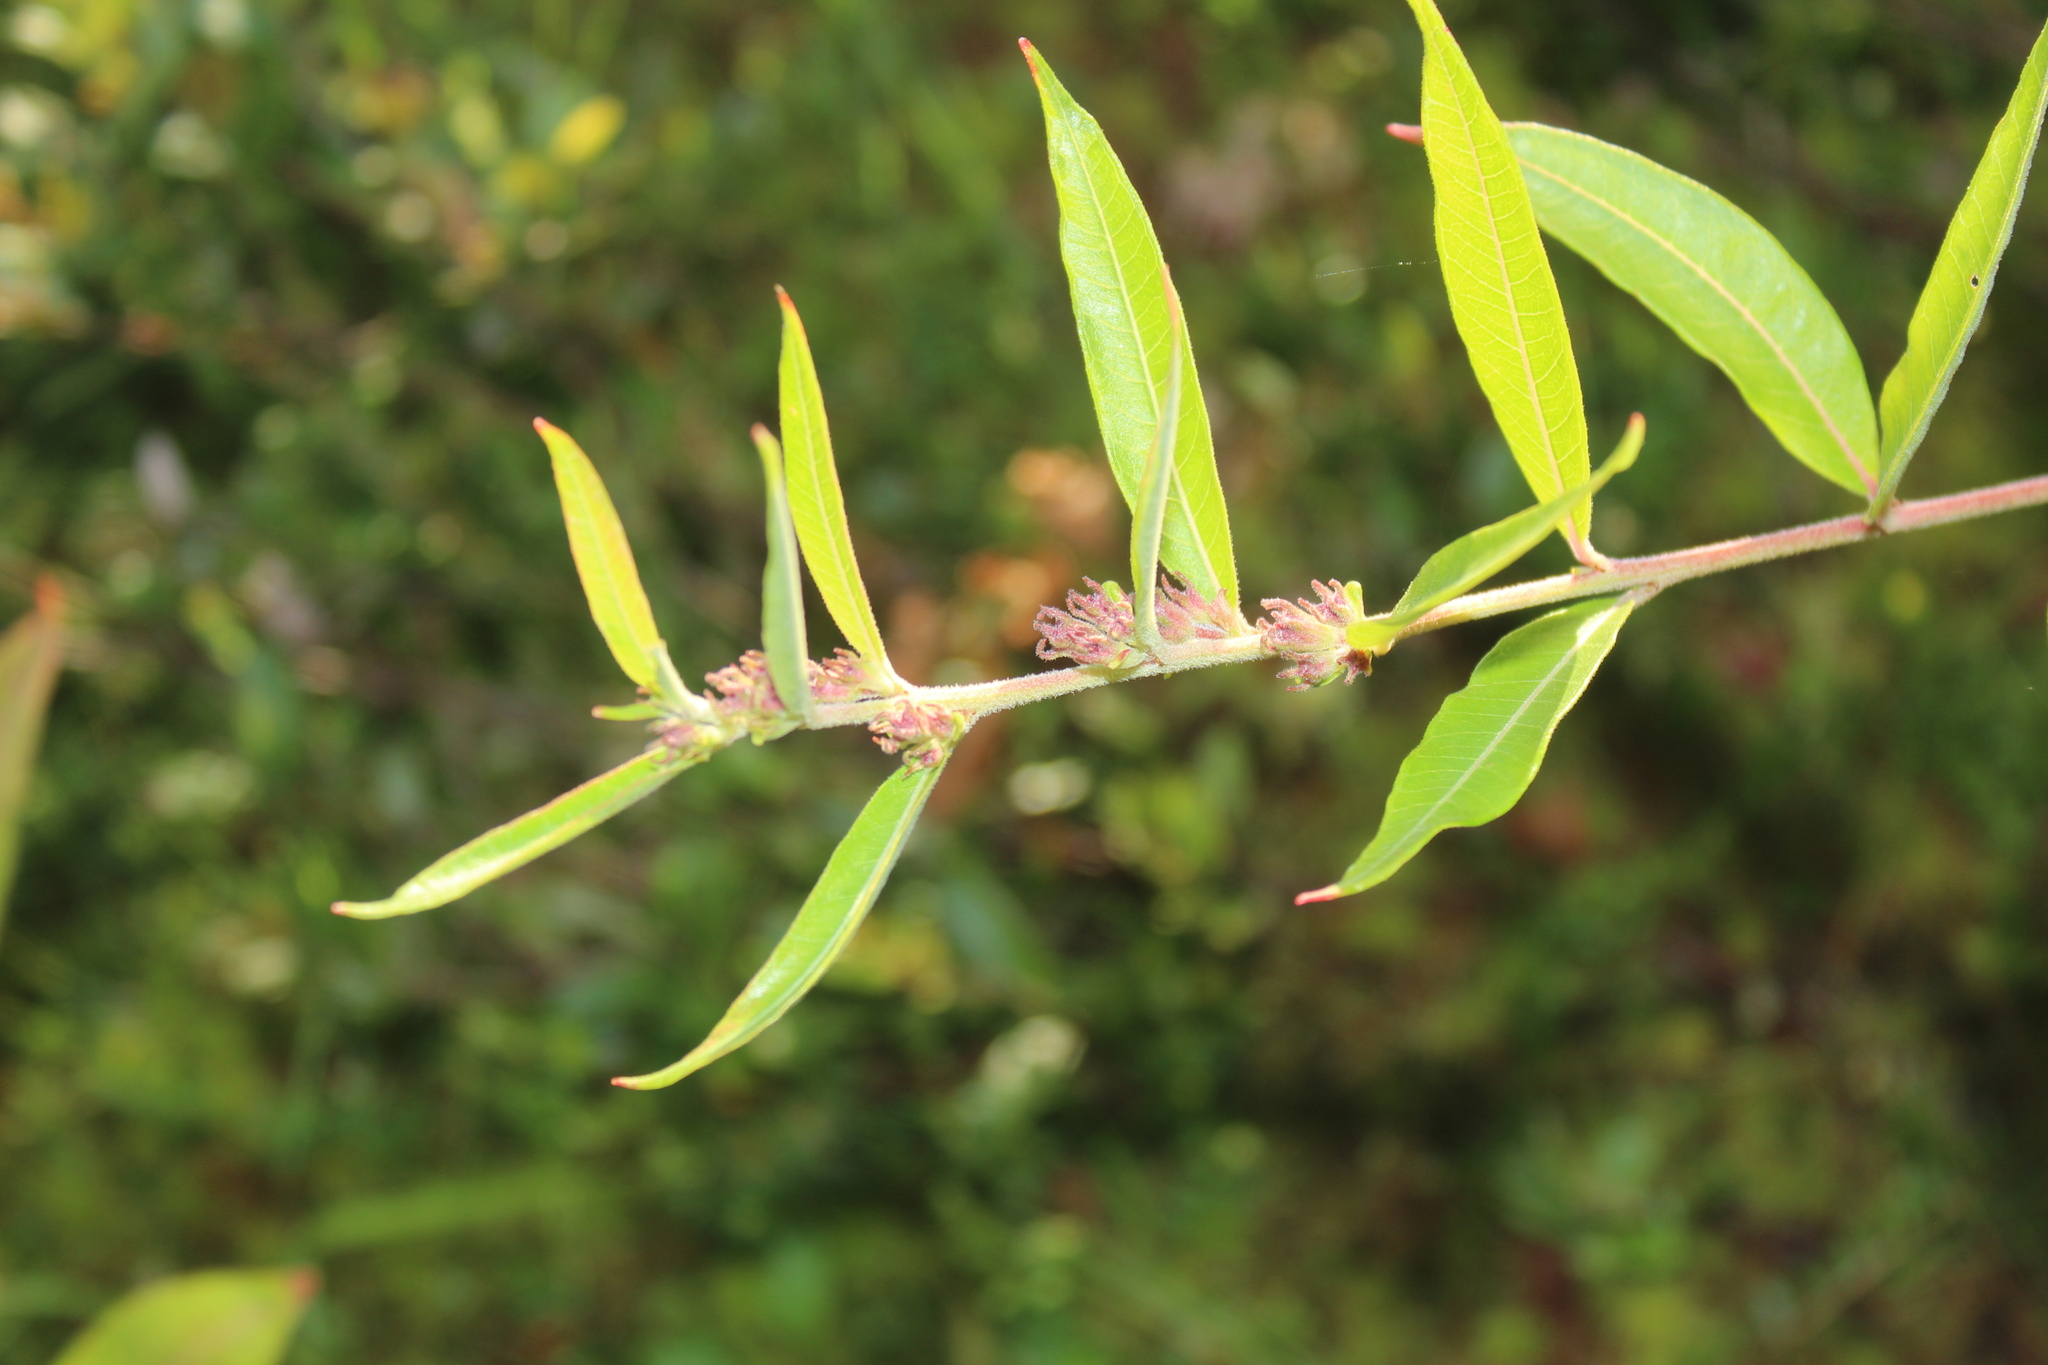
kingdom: Plantae
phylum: Tracheophyta
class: Magnoliopsida
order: Myrtales
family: Lythraceae
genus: Decodon
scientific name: Decodon verticillatus
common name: Hairy swamp loosestrife
